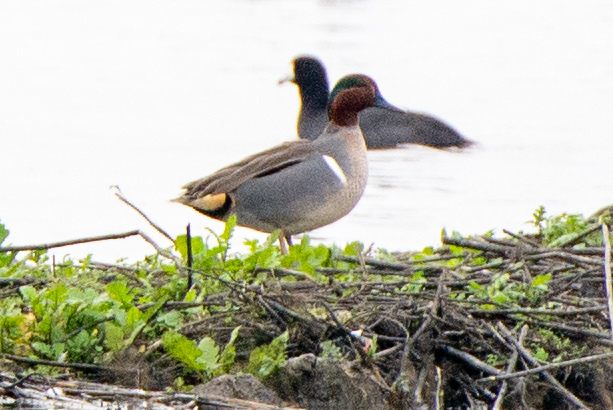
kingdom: Animalia
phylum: Chordata
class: Aves
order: Anseriformes
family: Anatidae
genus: Anas
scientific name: Anas crecca
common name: Eurasian teal
